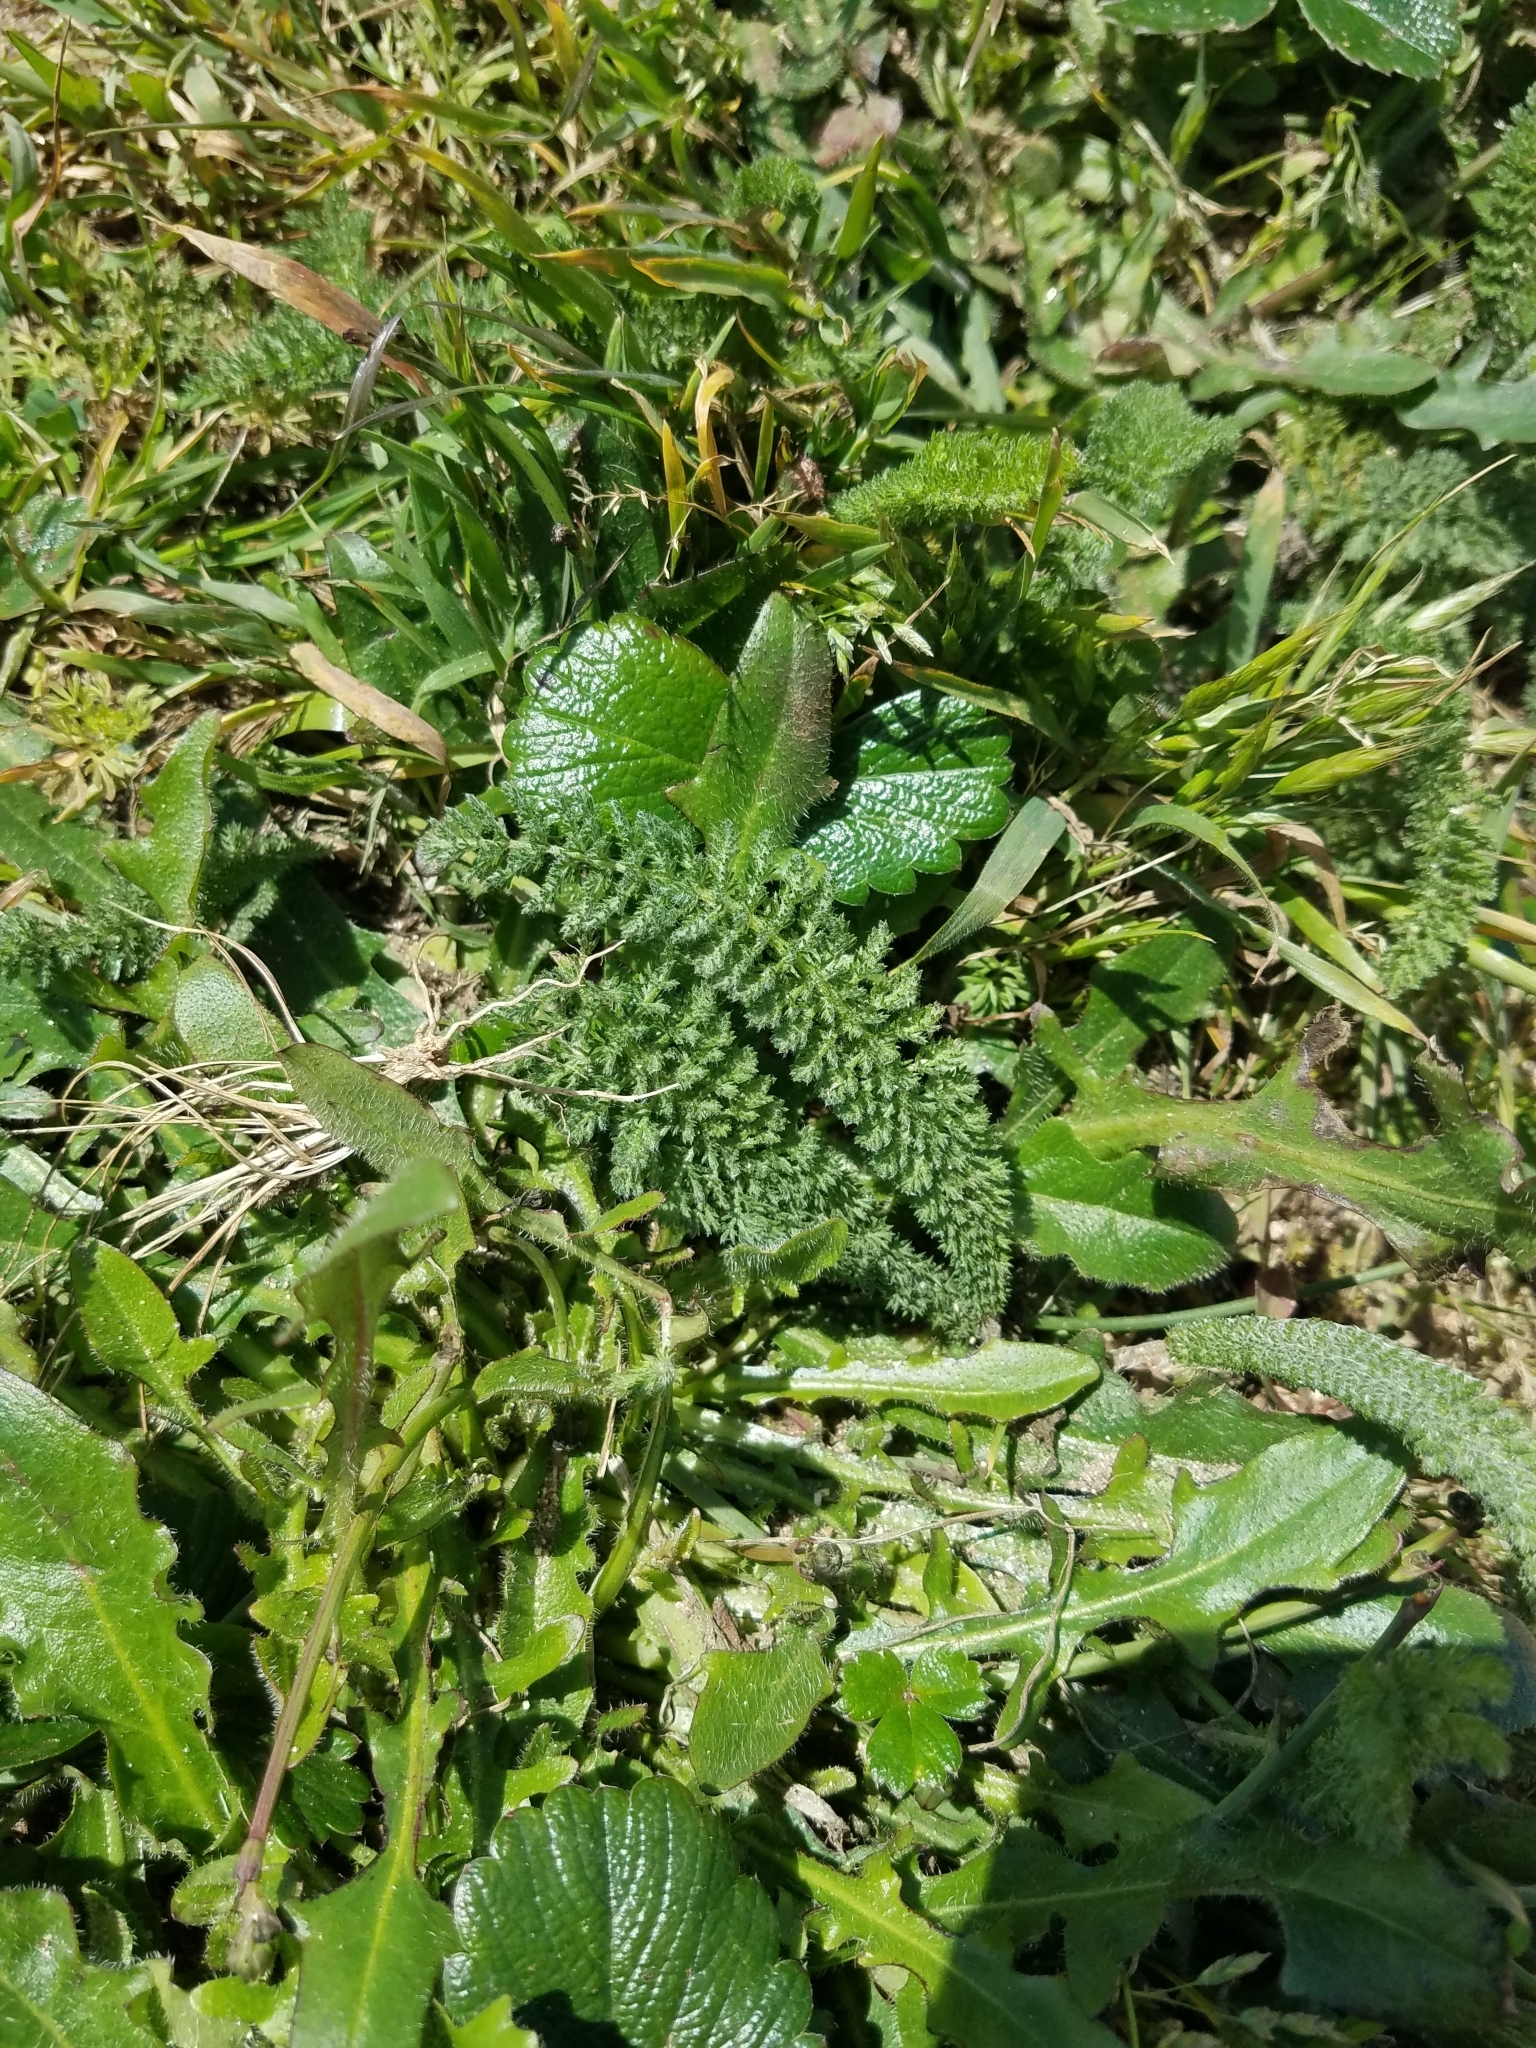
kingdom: Plantae
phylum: Tracheophyta
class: Magnoliopsida
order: Asterales
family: Asteraceae
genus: Achillea
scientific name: Achillea millefolium
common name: Yarrow
